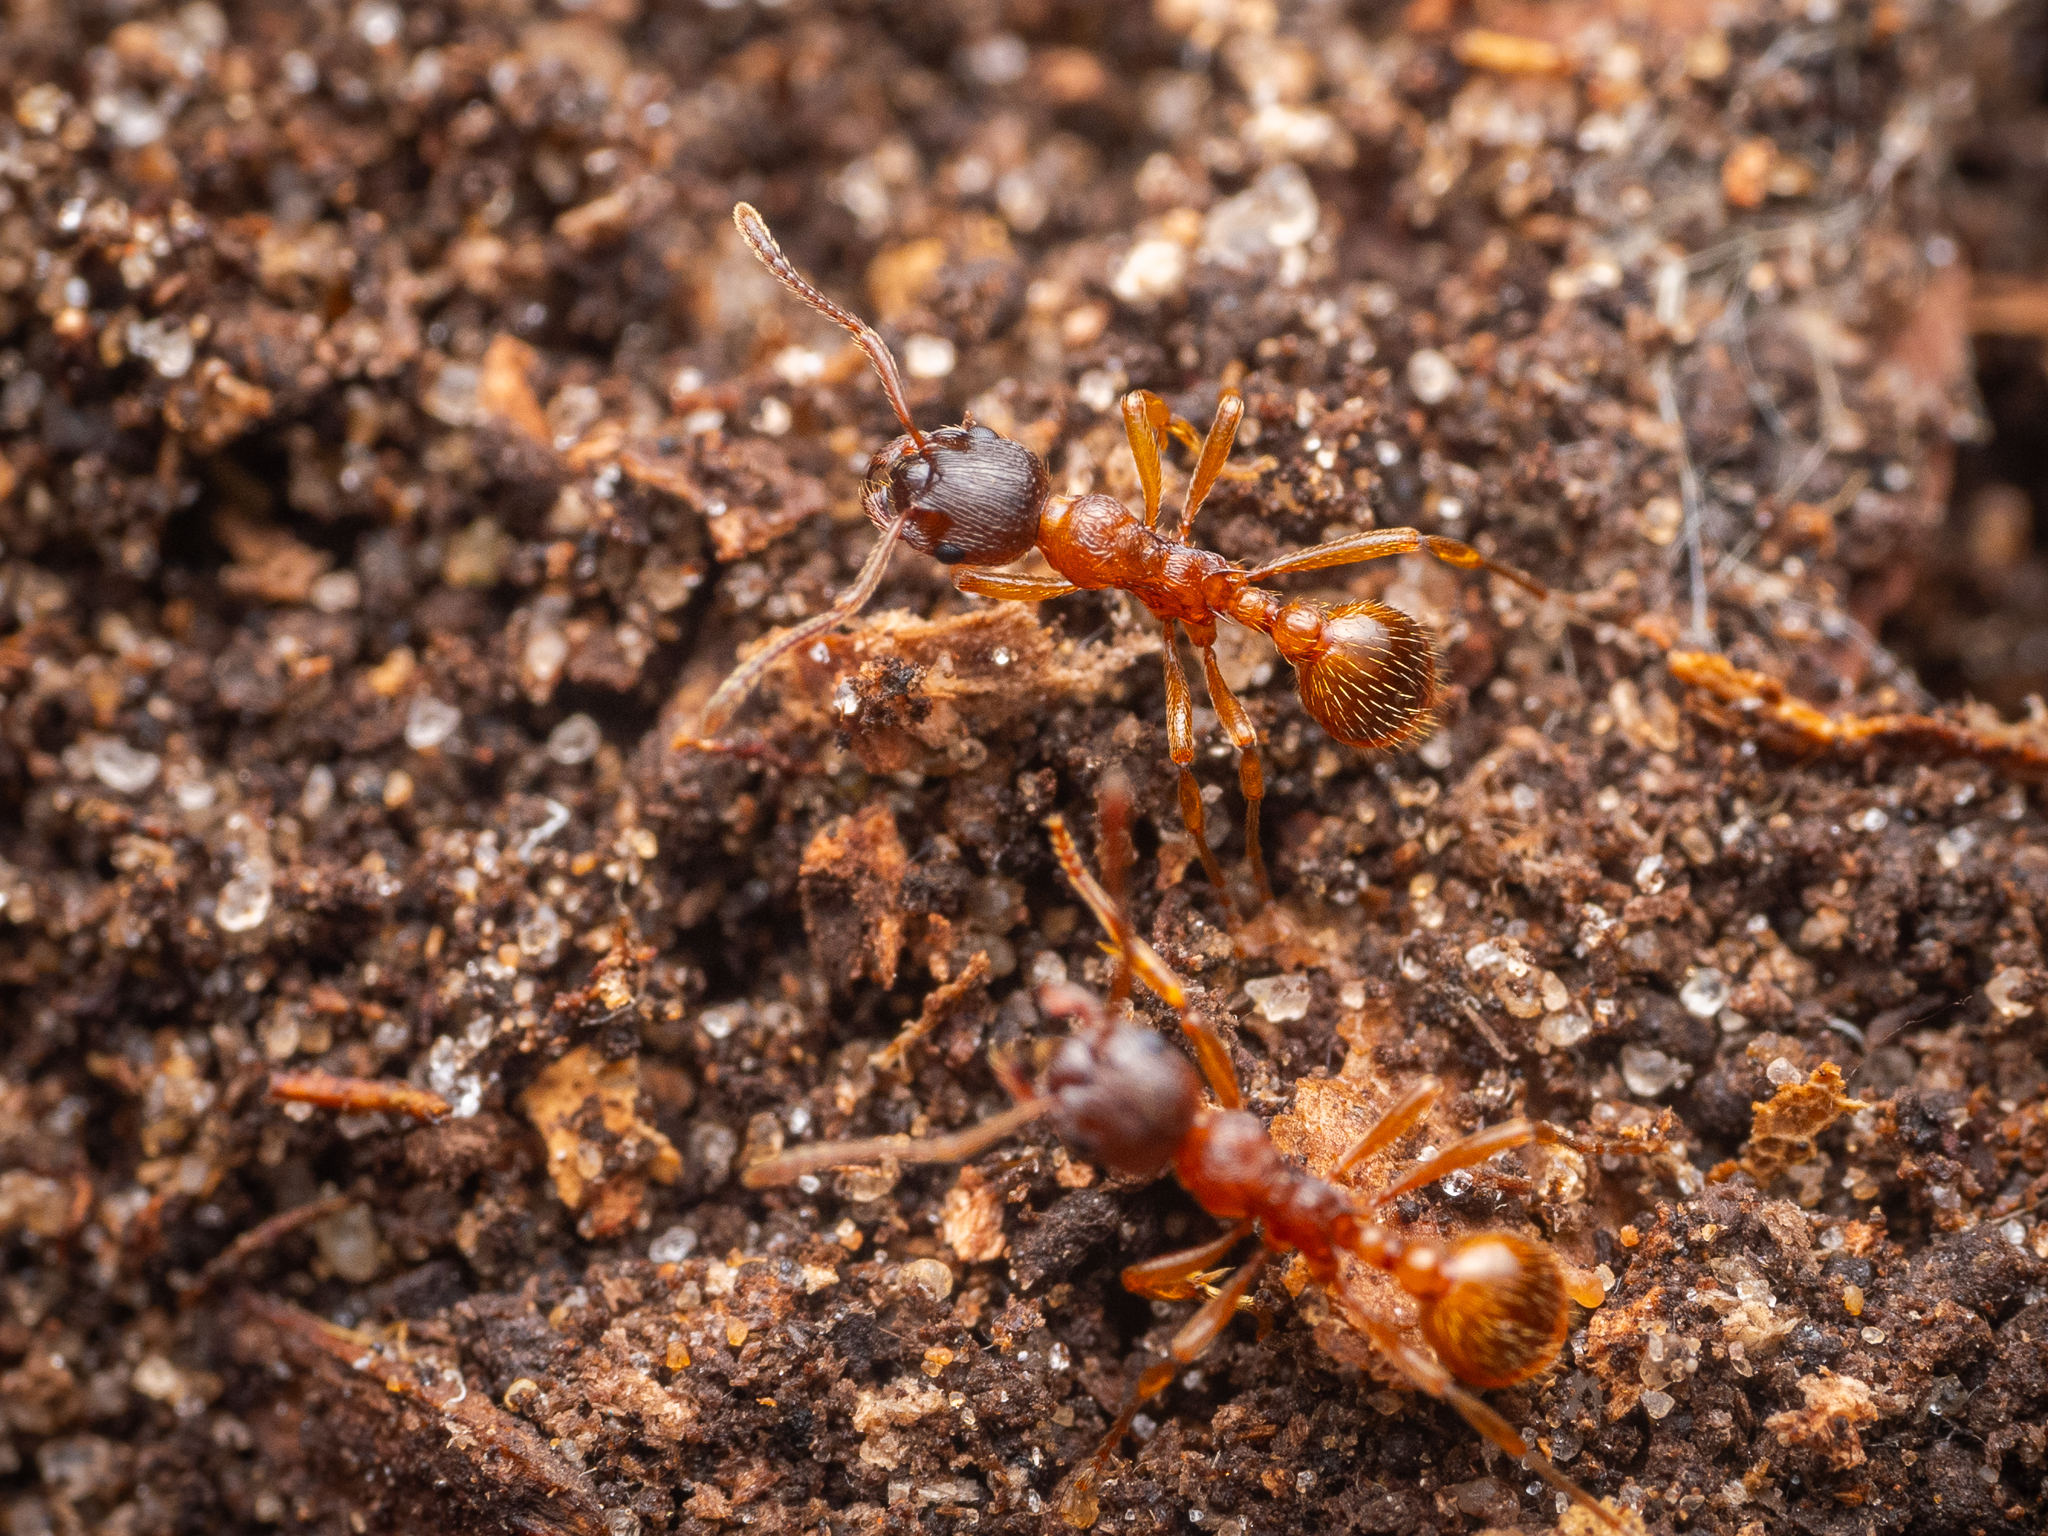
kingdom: Animalia
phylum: Arthropoda
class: Insecta
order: Hymenoptera
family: Formicidae
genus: Myrmica
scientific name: Myrmica rubra
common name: European fire ant
